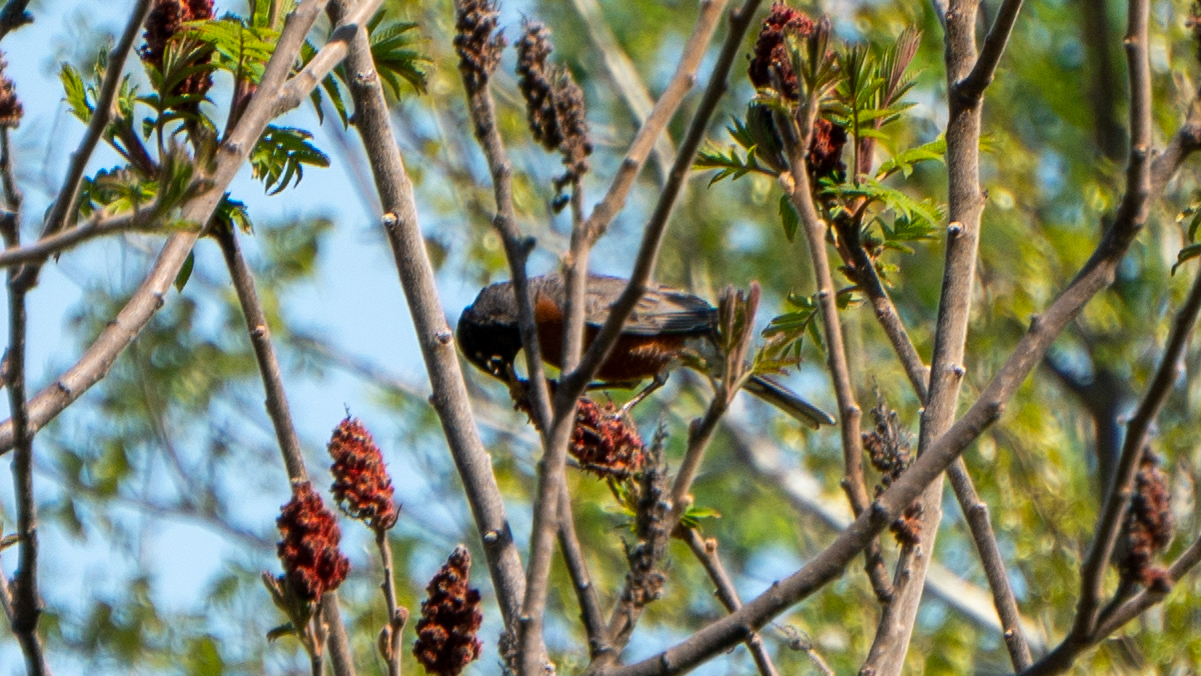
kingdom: Animalia
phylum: Chordata
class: Aves
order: Passeriformes
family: Turdidae
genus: Turdus
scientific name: Turdus migratorius
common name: American robin
